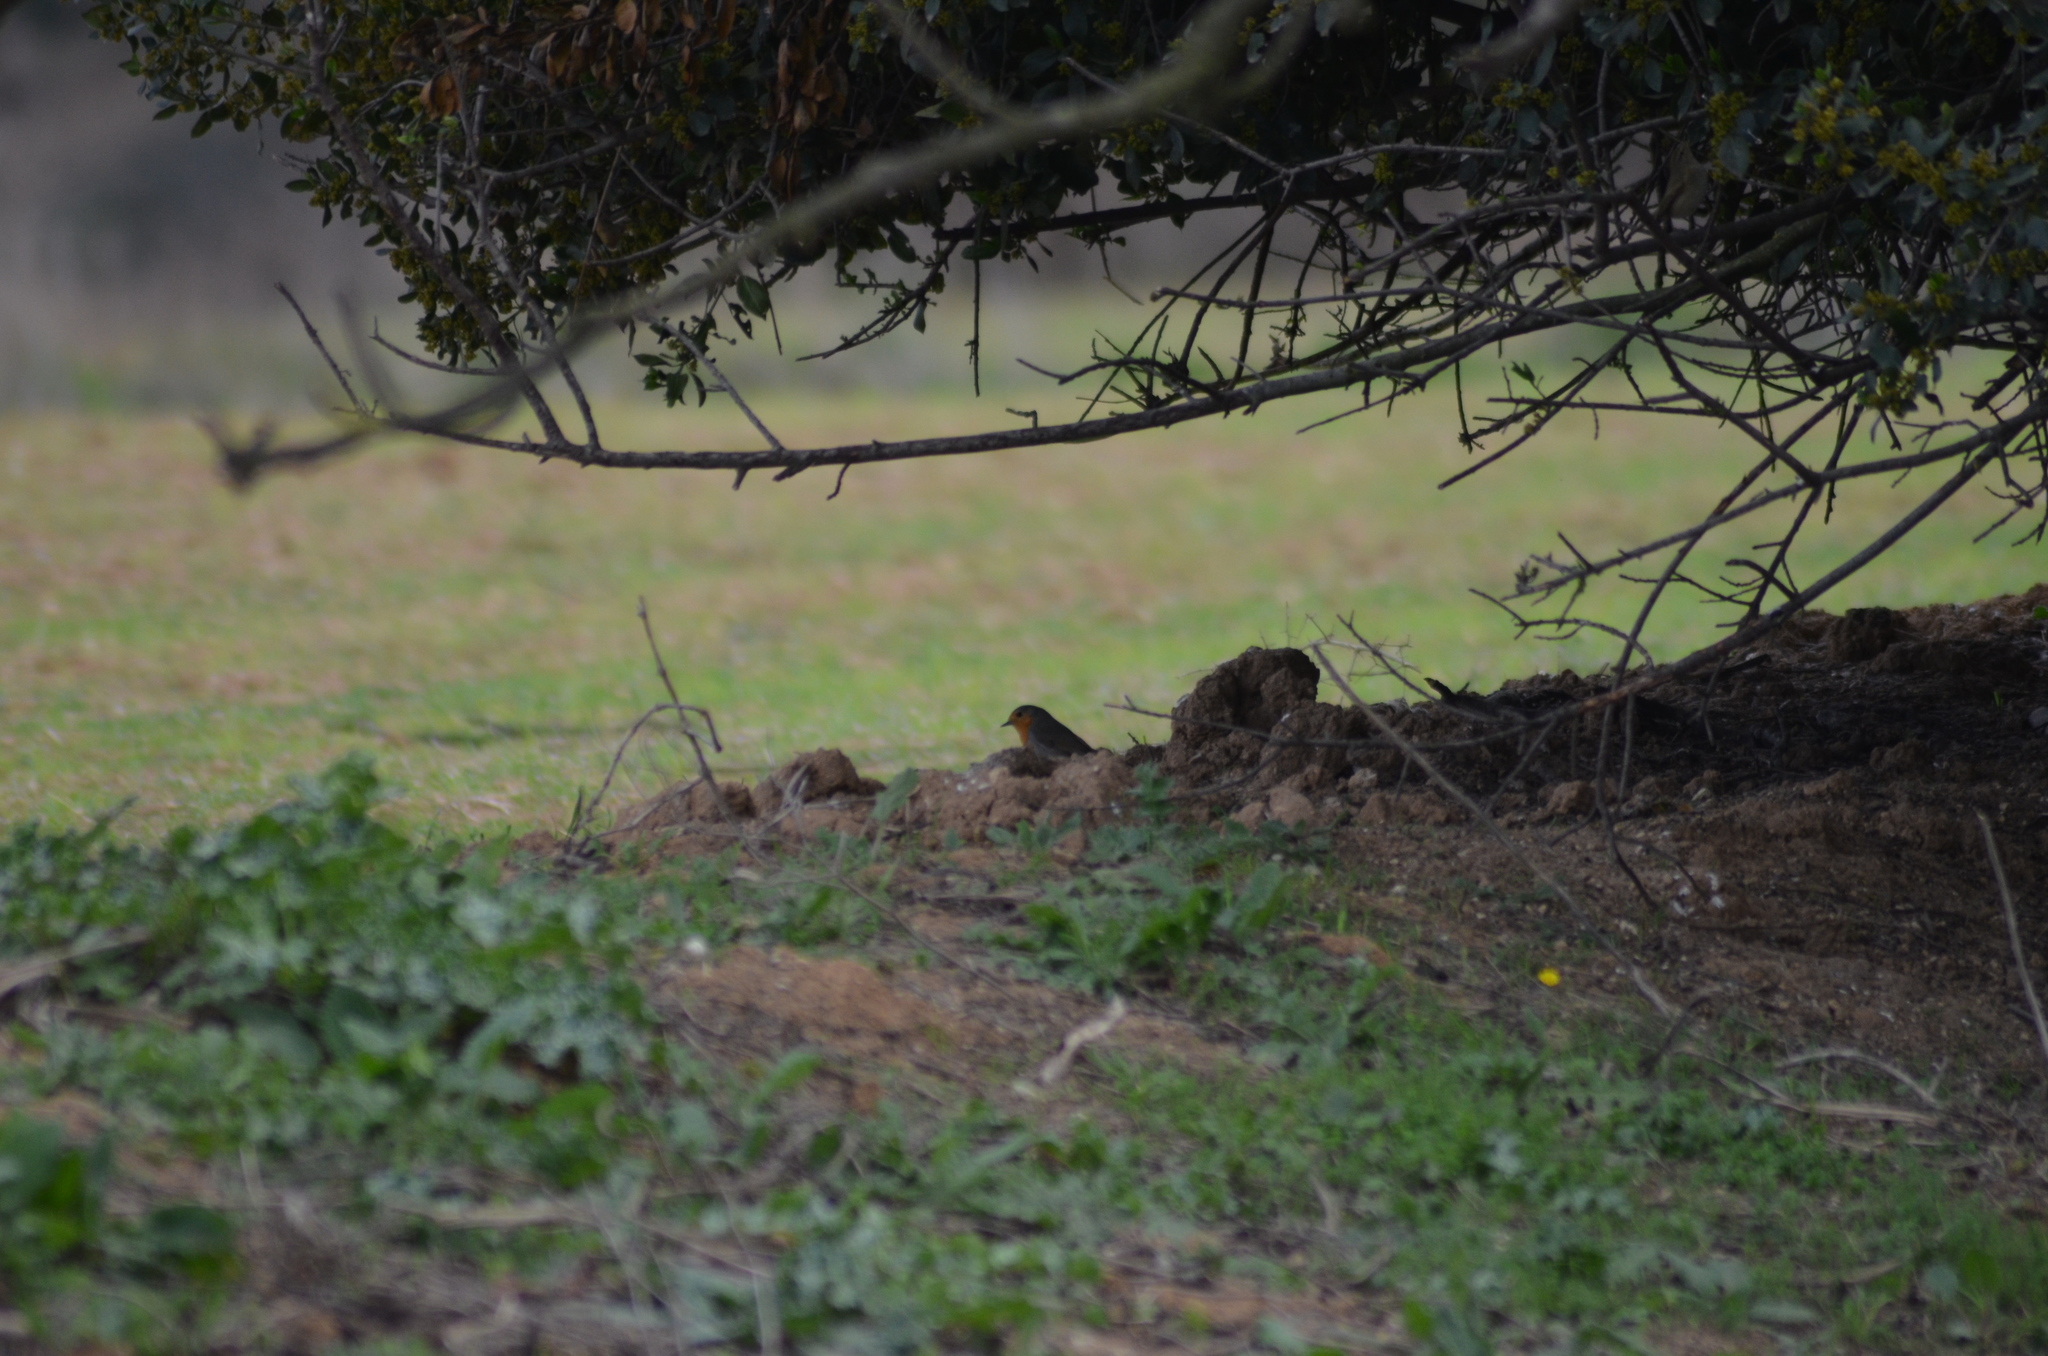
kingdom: Animalia
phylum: Chordata
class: Aves
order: Passeriformes
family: Muscicapidae
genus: Erithacus
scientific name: Erithacus rubecula
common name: European robin
